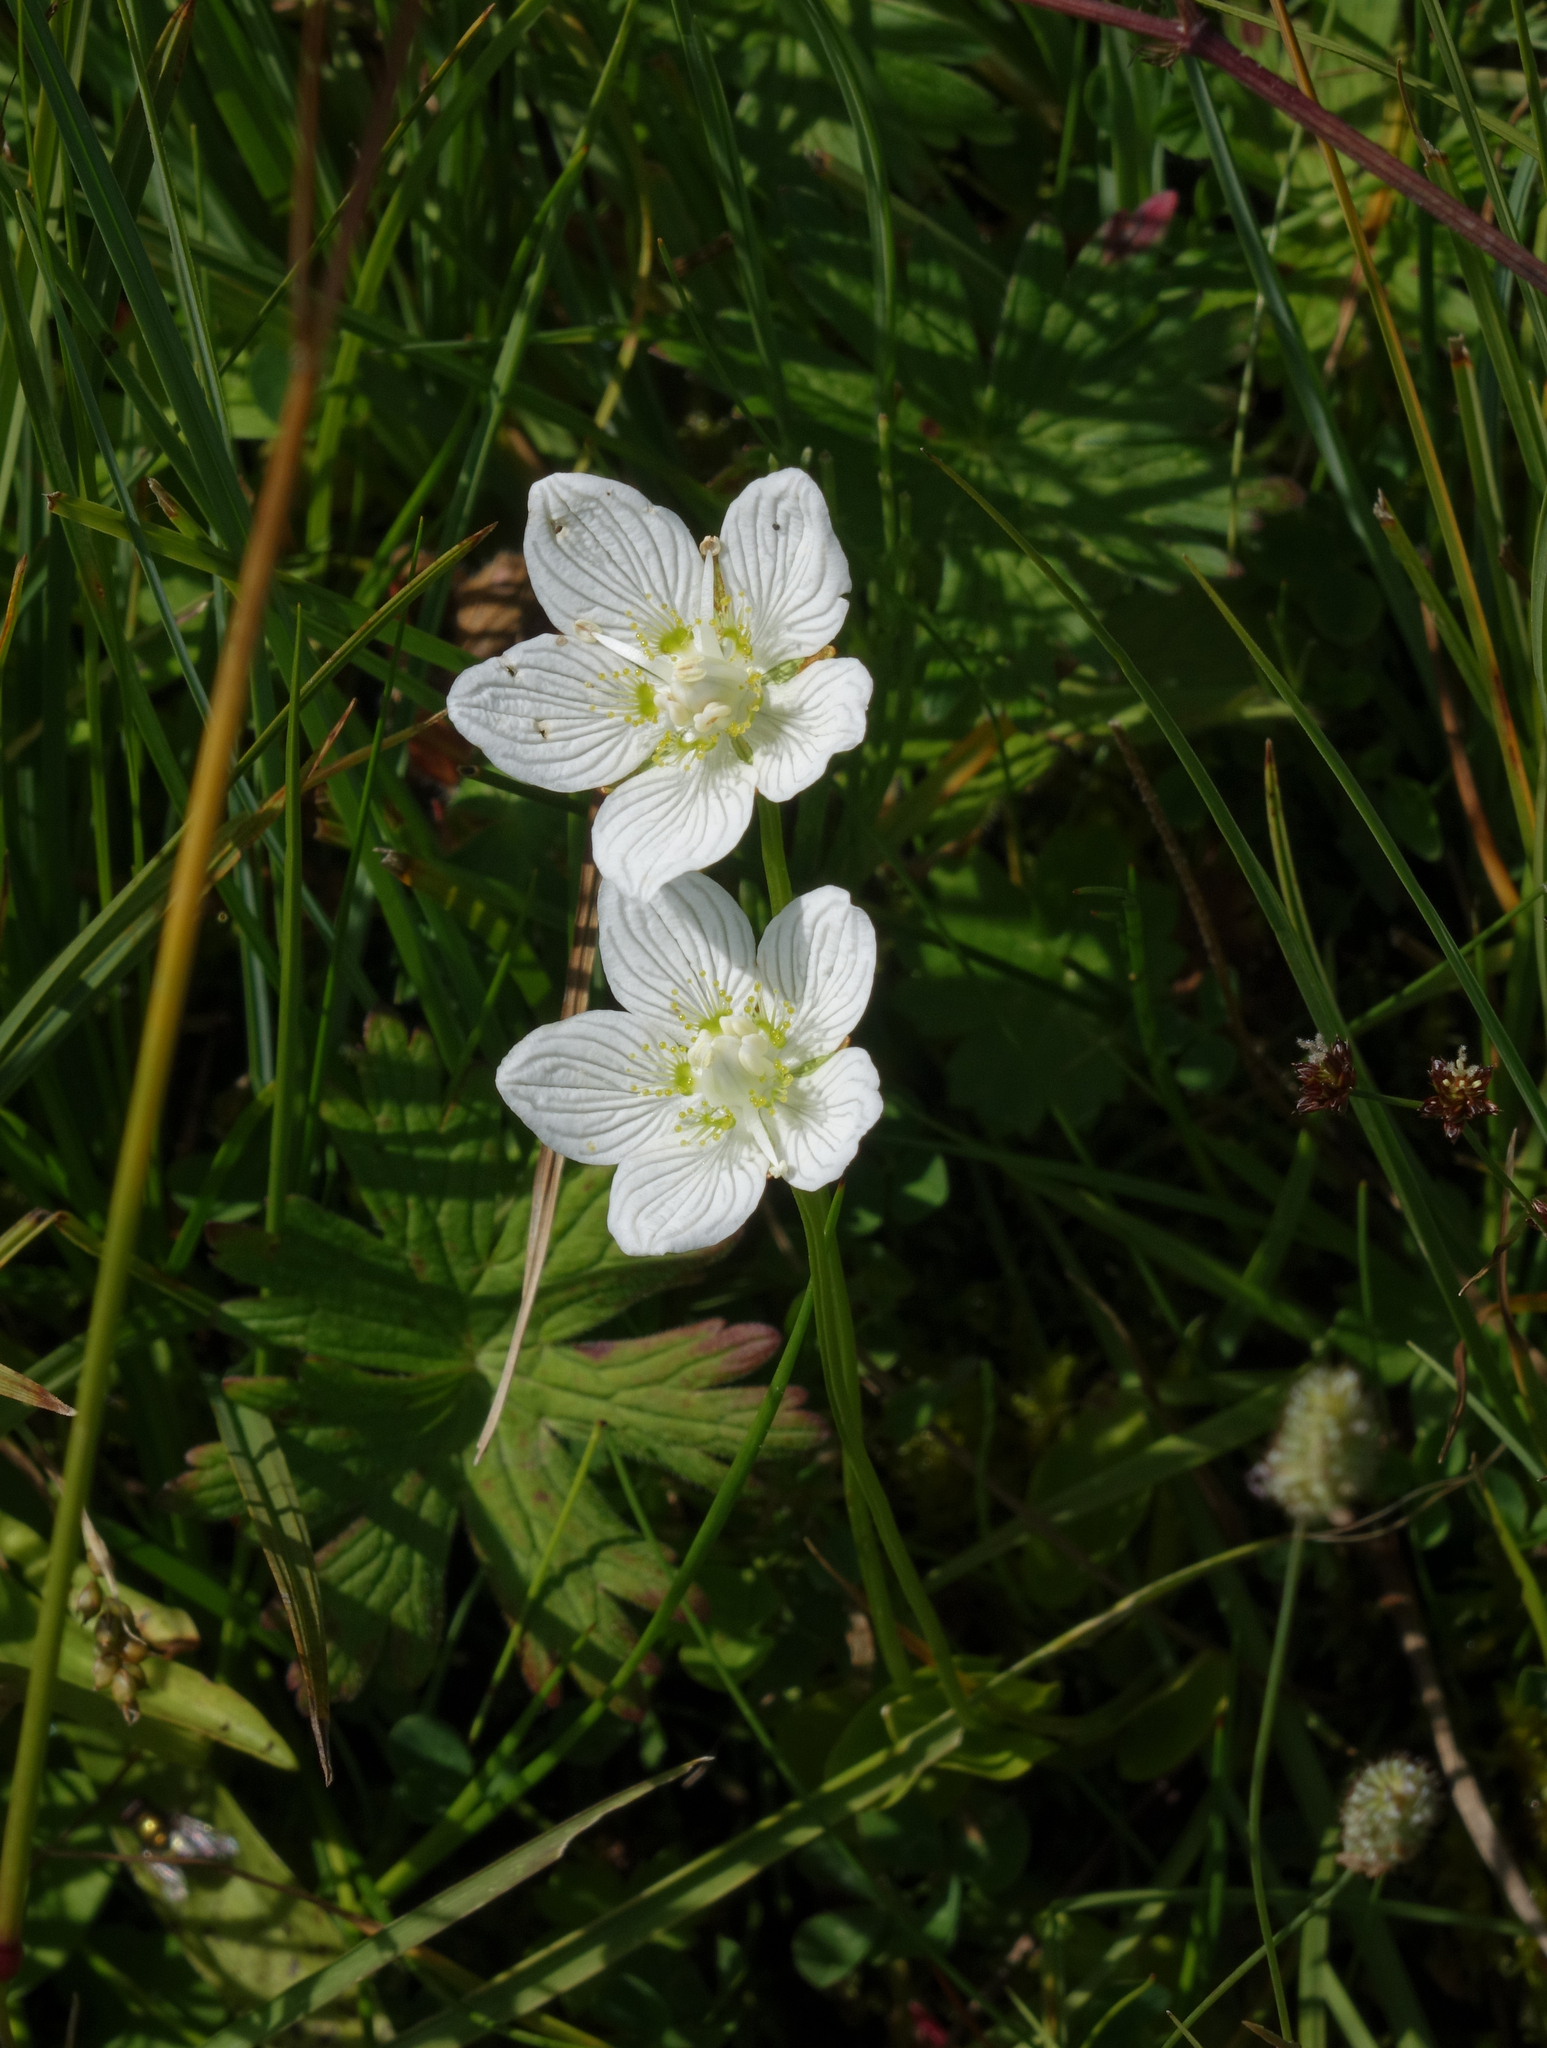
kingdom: Plantae
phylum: Tracheophyta
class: Magnoliopsida
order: Celastrales
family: Parnassiaceae
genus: Parnassia
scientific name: Parnassia palustris
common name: Grass-of-parnassus
